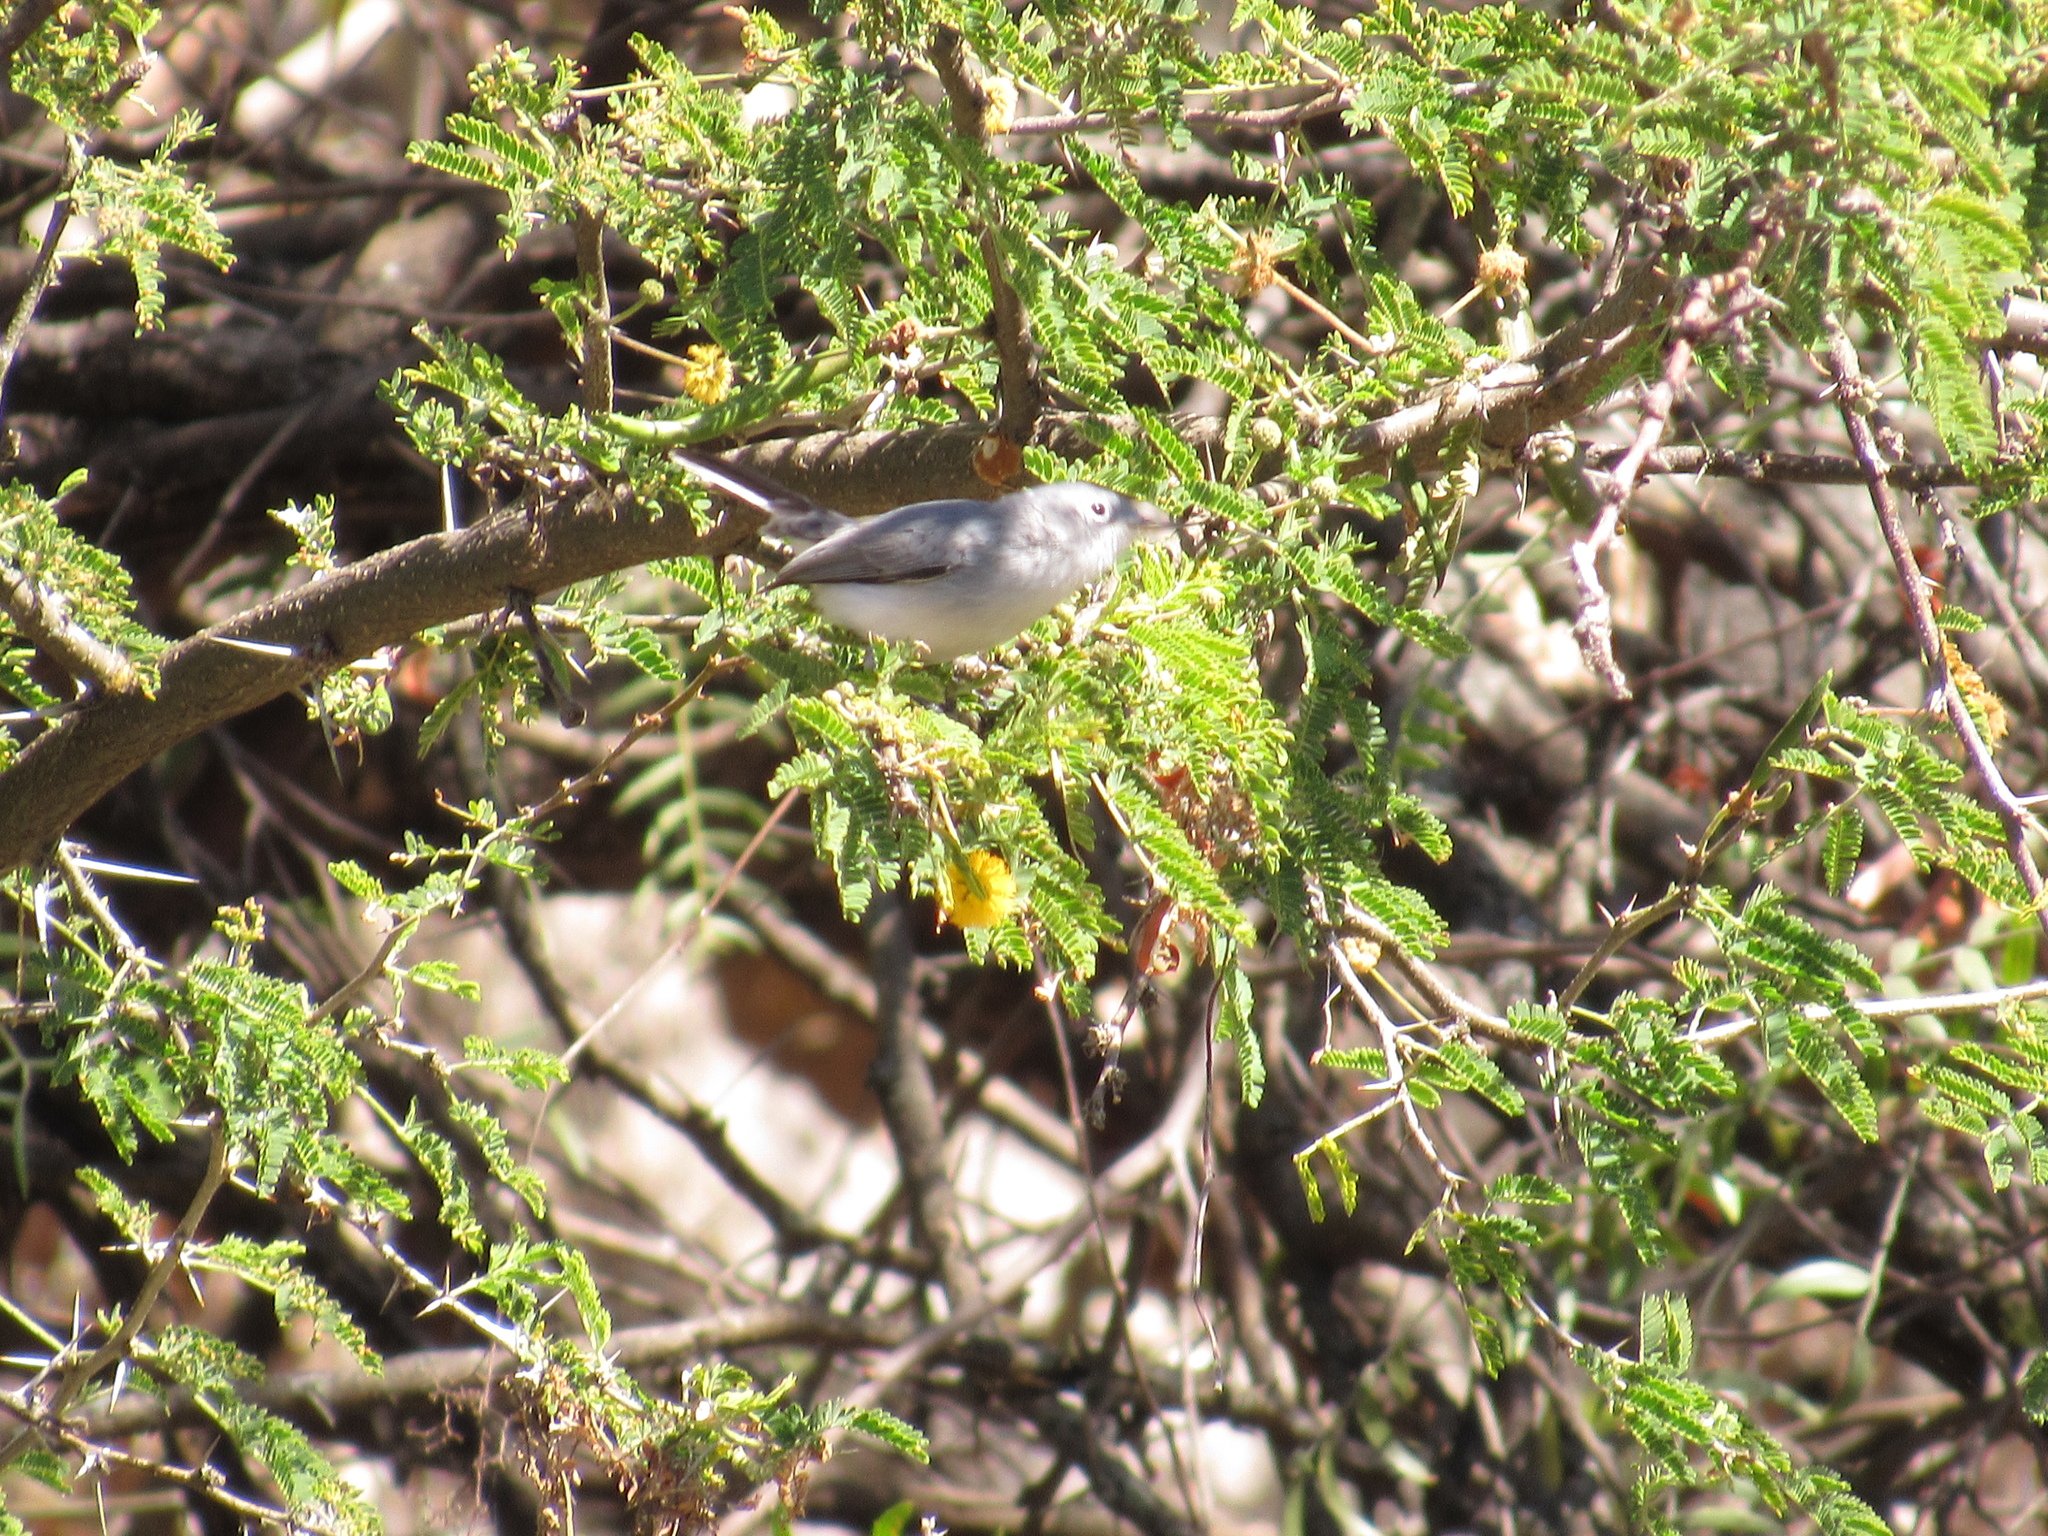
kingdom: Animalia
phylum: Chordata
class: Aves
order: Passeriformes
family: Polioptilidae
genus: Polioptila
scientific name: Polioptila caerulea
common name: Blue-gray gnatcatcher
